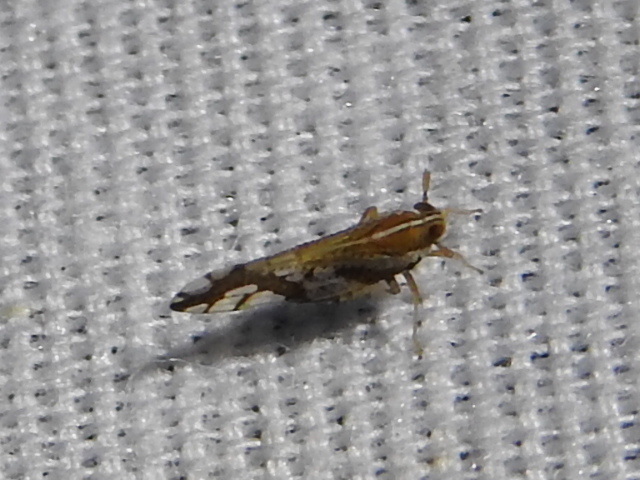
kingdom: Animalia
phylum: Arthropoda
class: Insecta
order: Hemiptera
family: Delphacidae
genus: Liburniella
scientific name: Liburniella ornata
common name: Ornate planthopper
